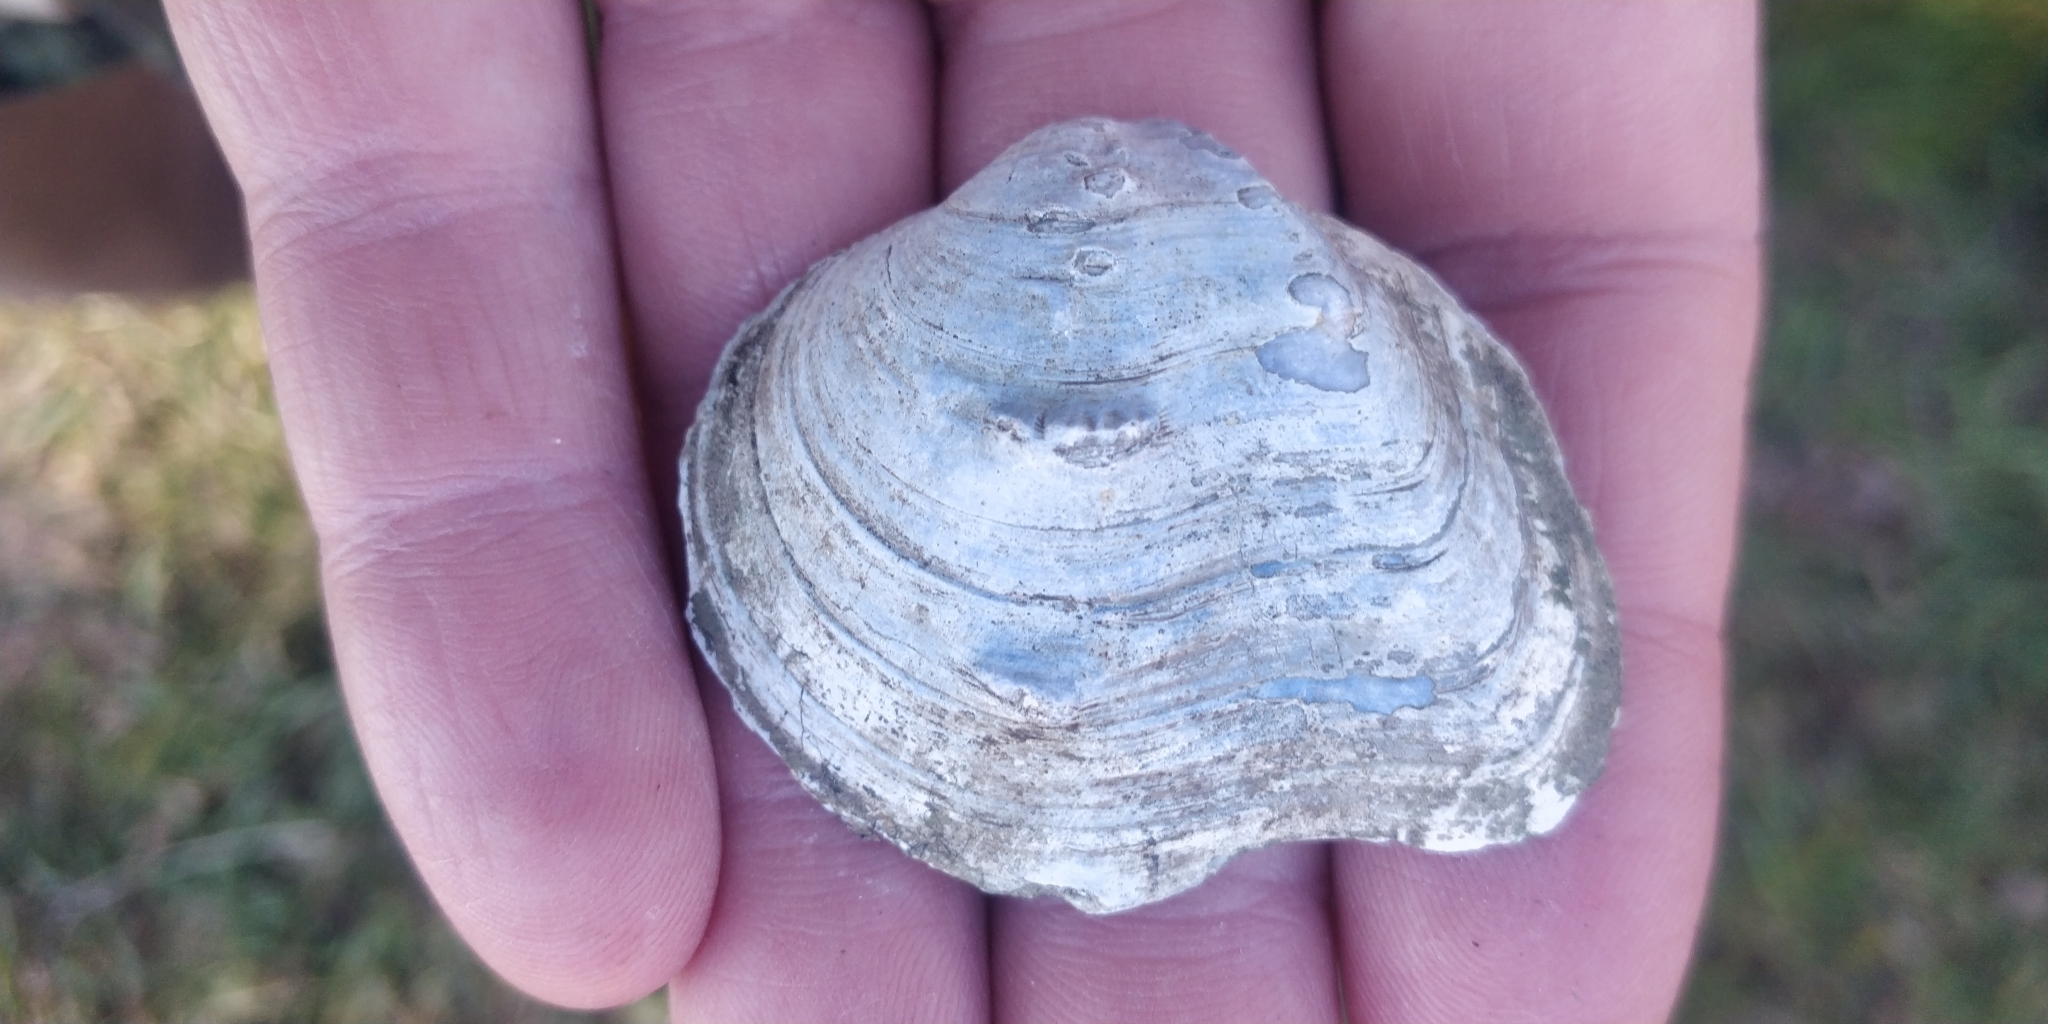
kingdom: Animalia
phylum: Mollusca
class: Bivalvia
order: Unionida
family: Unionidae
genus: Quadrula
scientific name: Quadrula quadrula
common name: Mapleleaf
